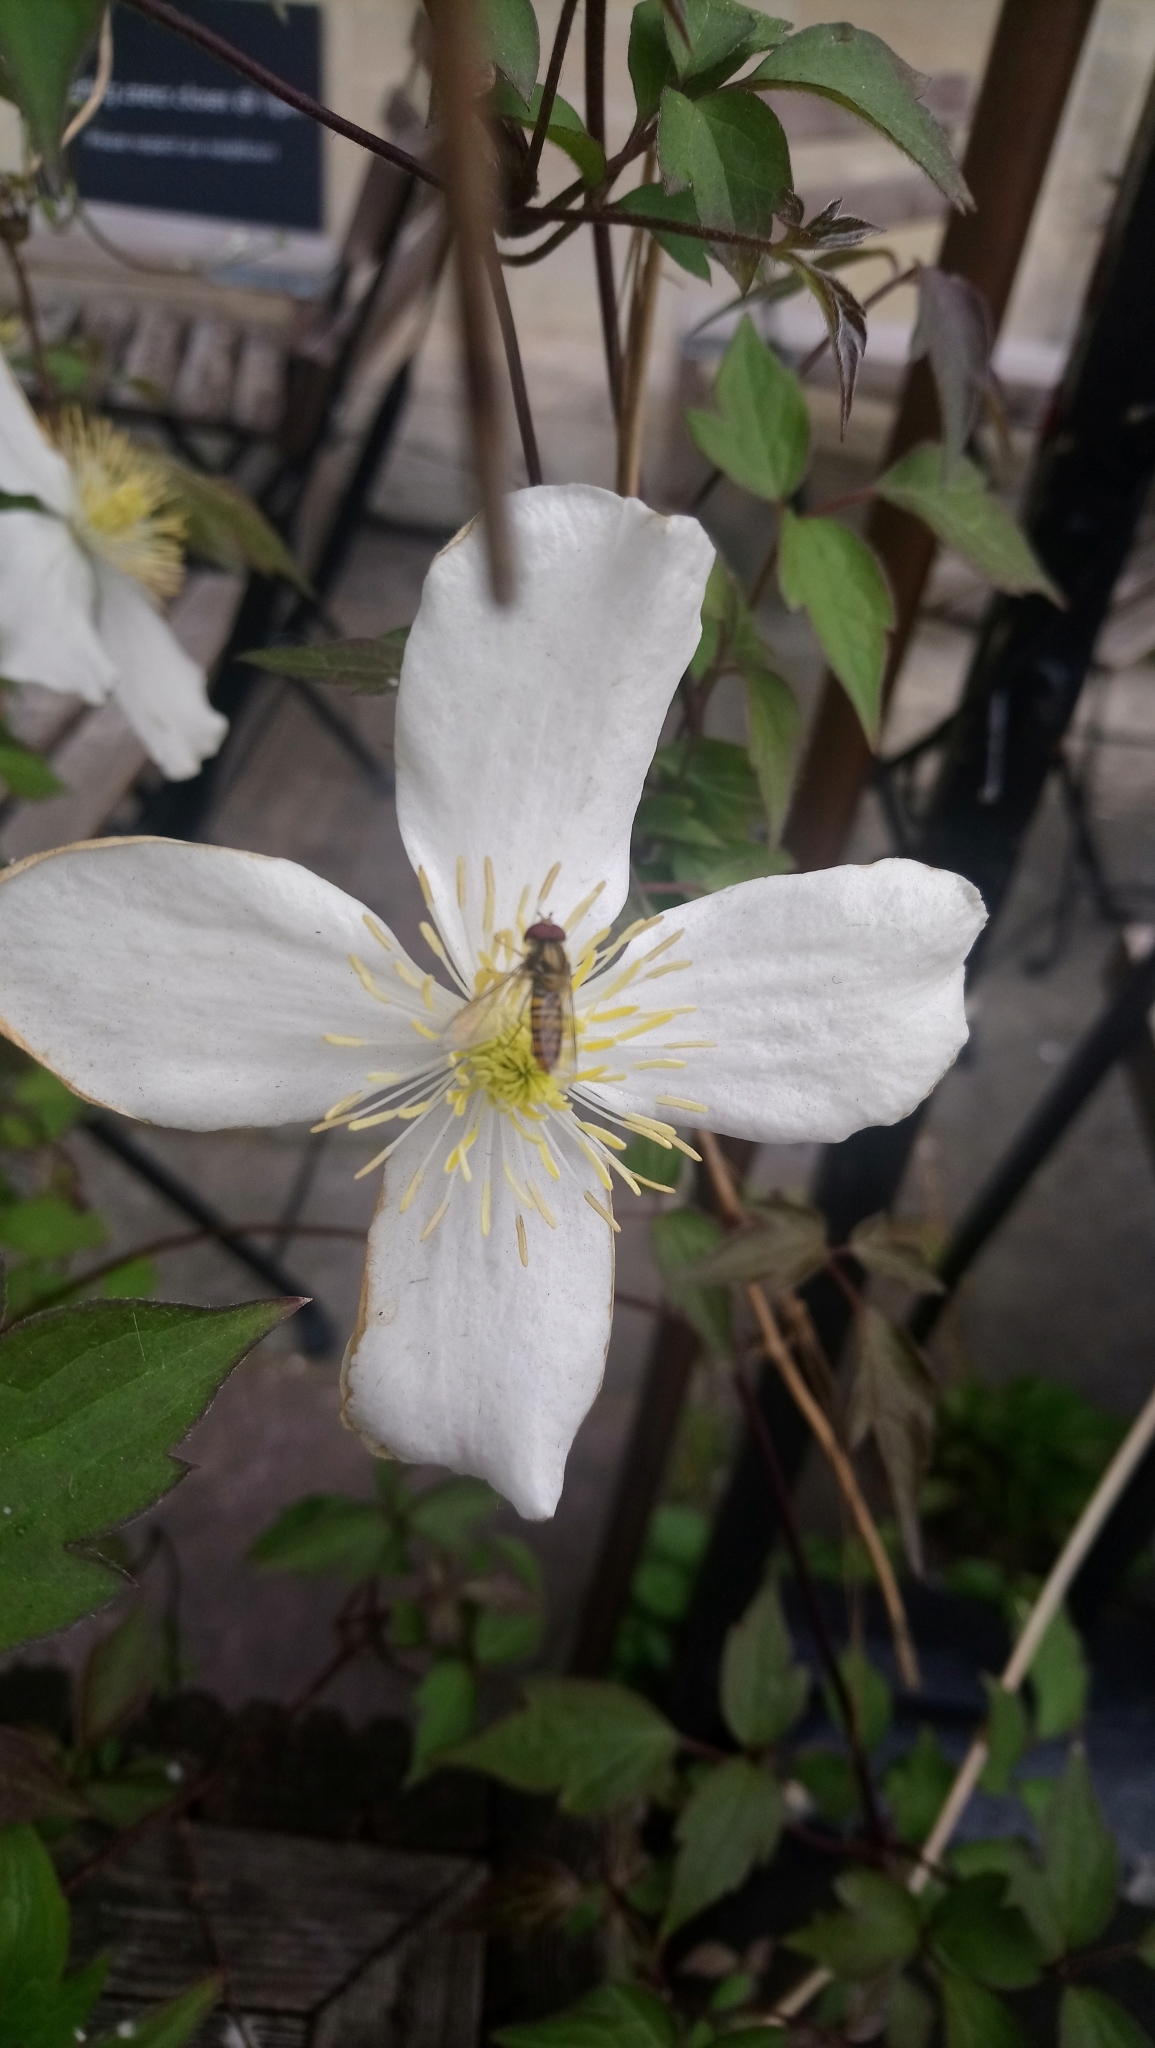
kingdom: Animalia
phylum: Arthropoda
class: Insecta
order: Diptera
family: Syrphidae
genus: Episyrphus
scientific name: Episyrphus balteatus
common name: Marmalade hoverfly
